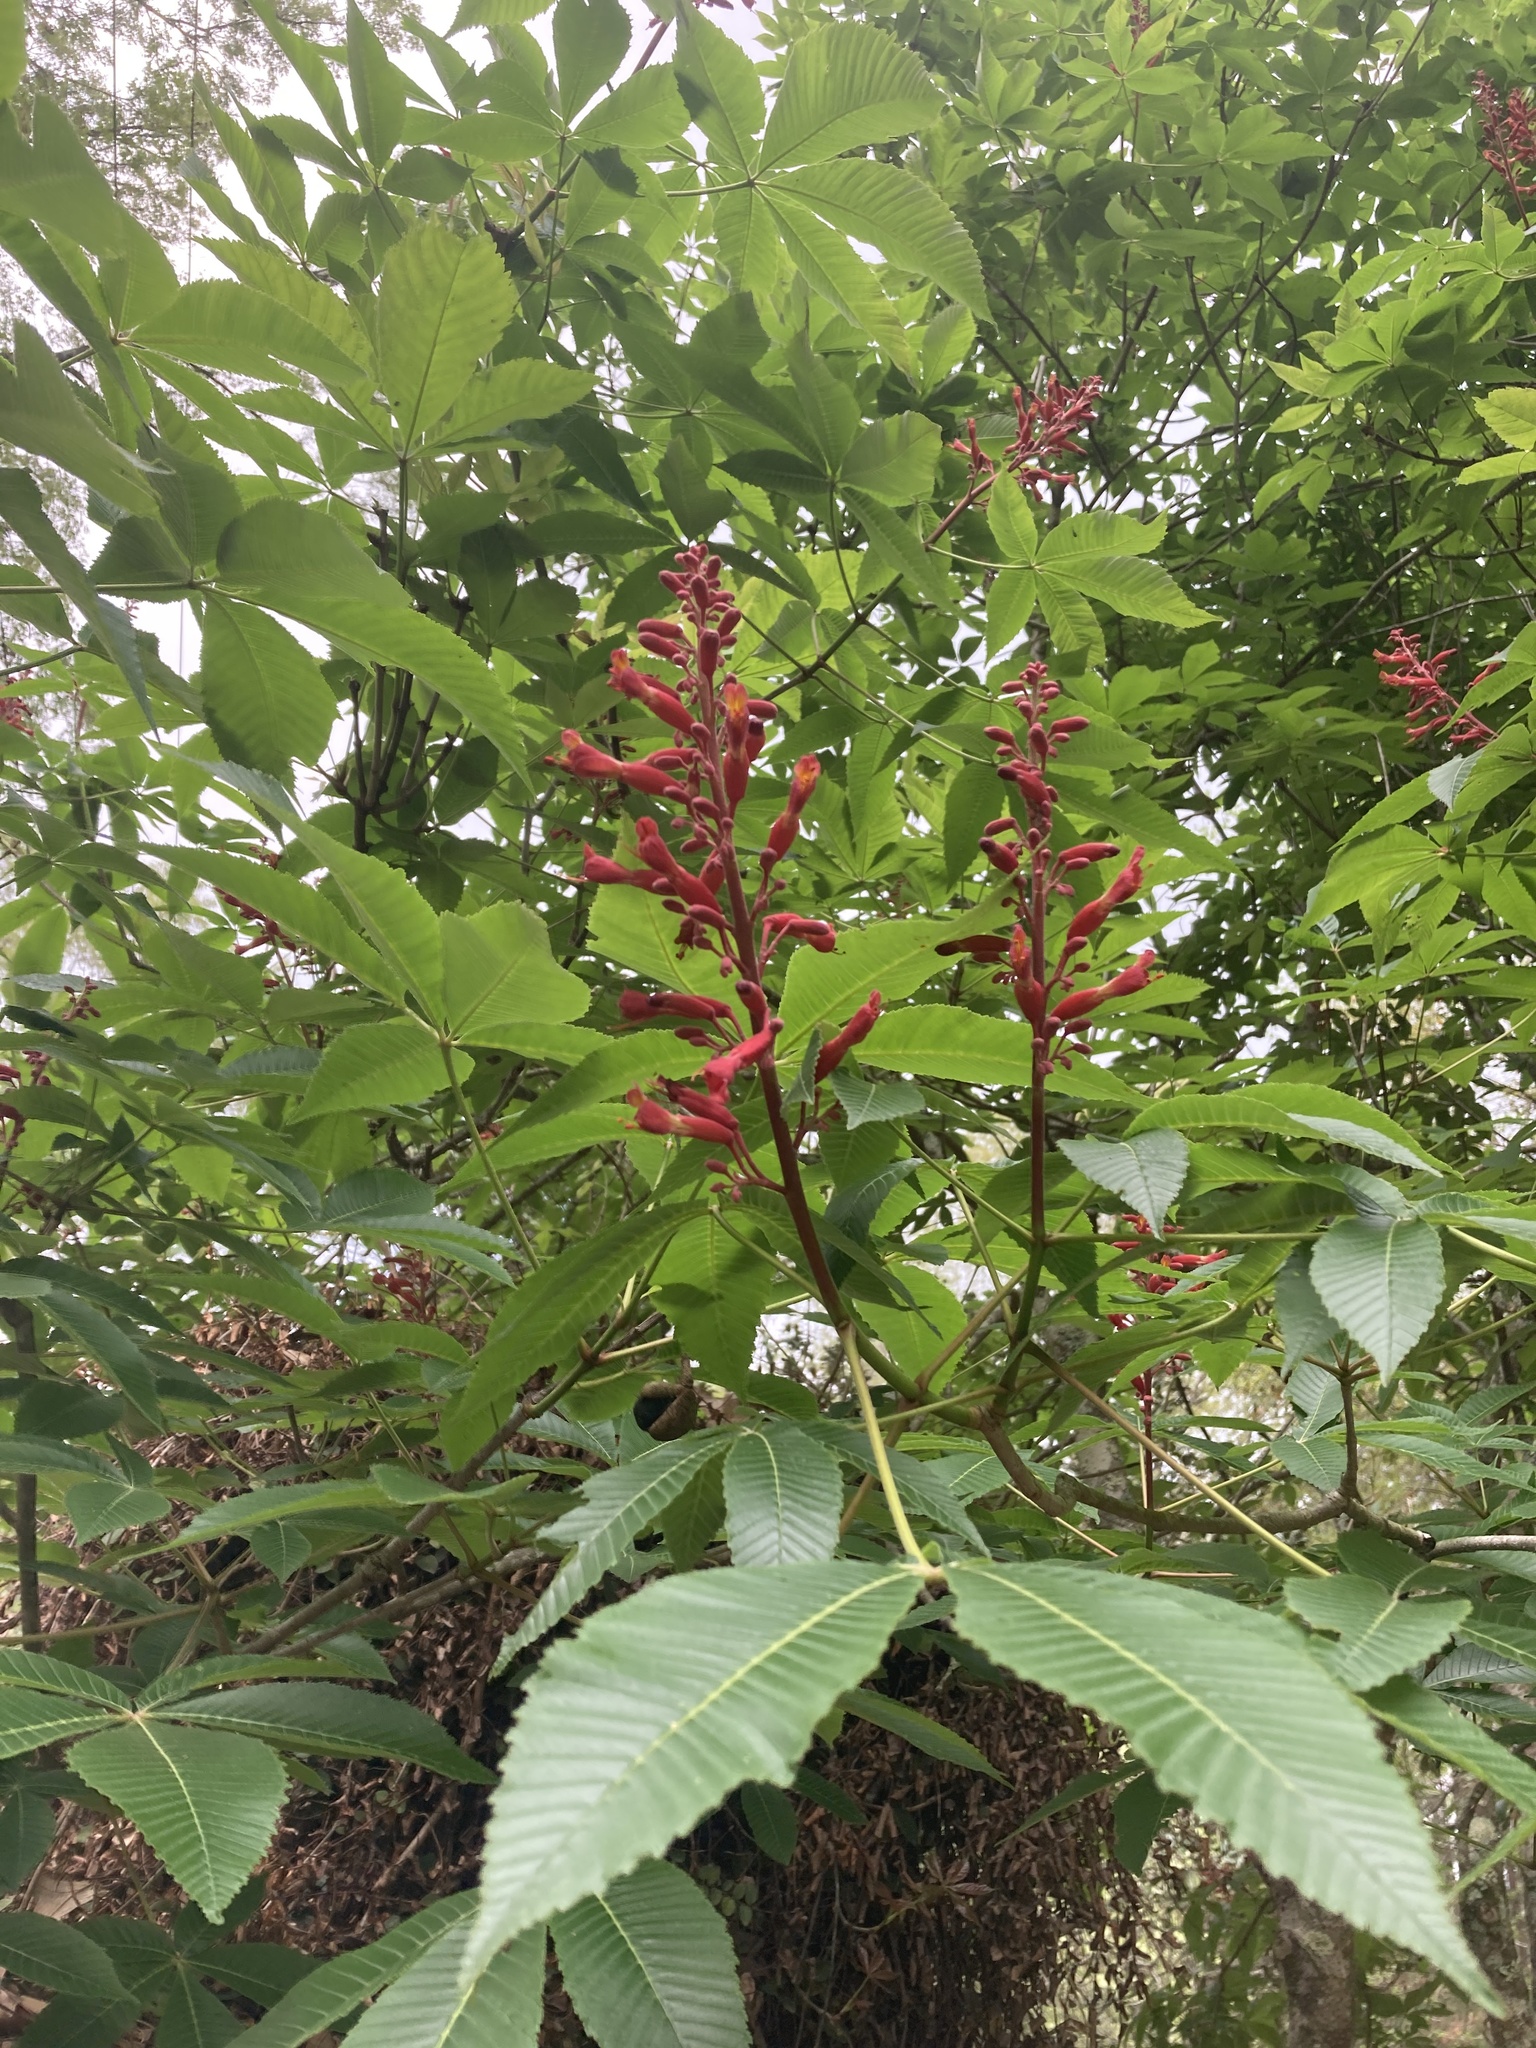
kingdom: Plantae
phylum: Tracheophyta
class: Magnoliopsida
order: Sapindales
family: Sapindaceae
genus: Aesculus
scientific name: Aesculus pavia
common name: Red buckeye
